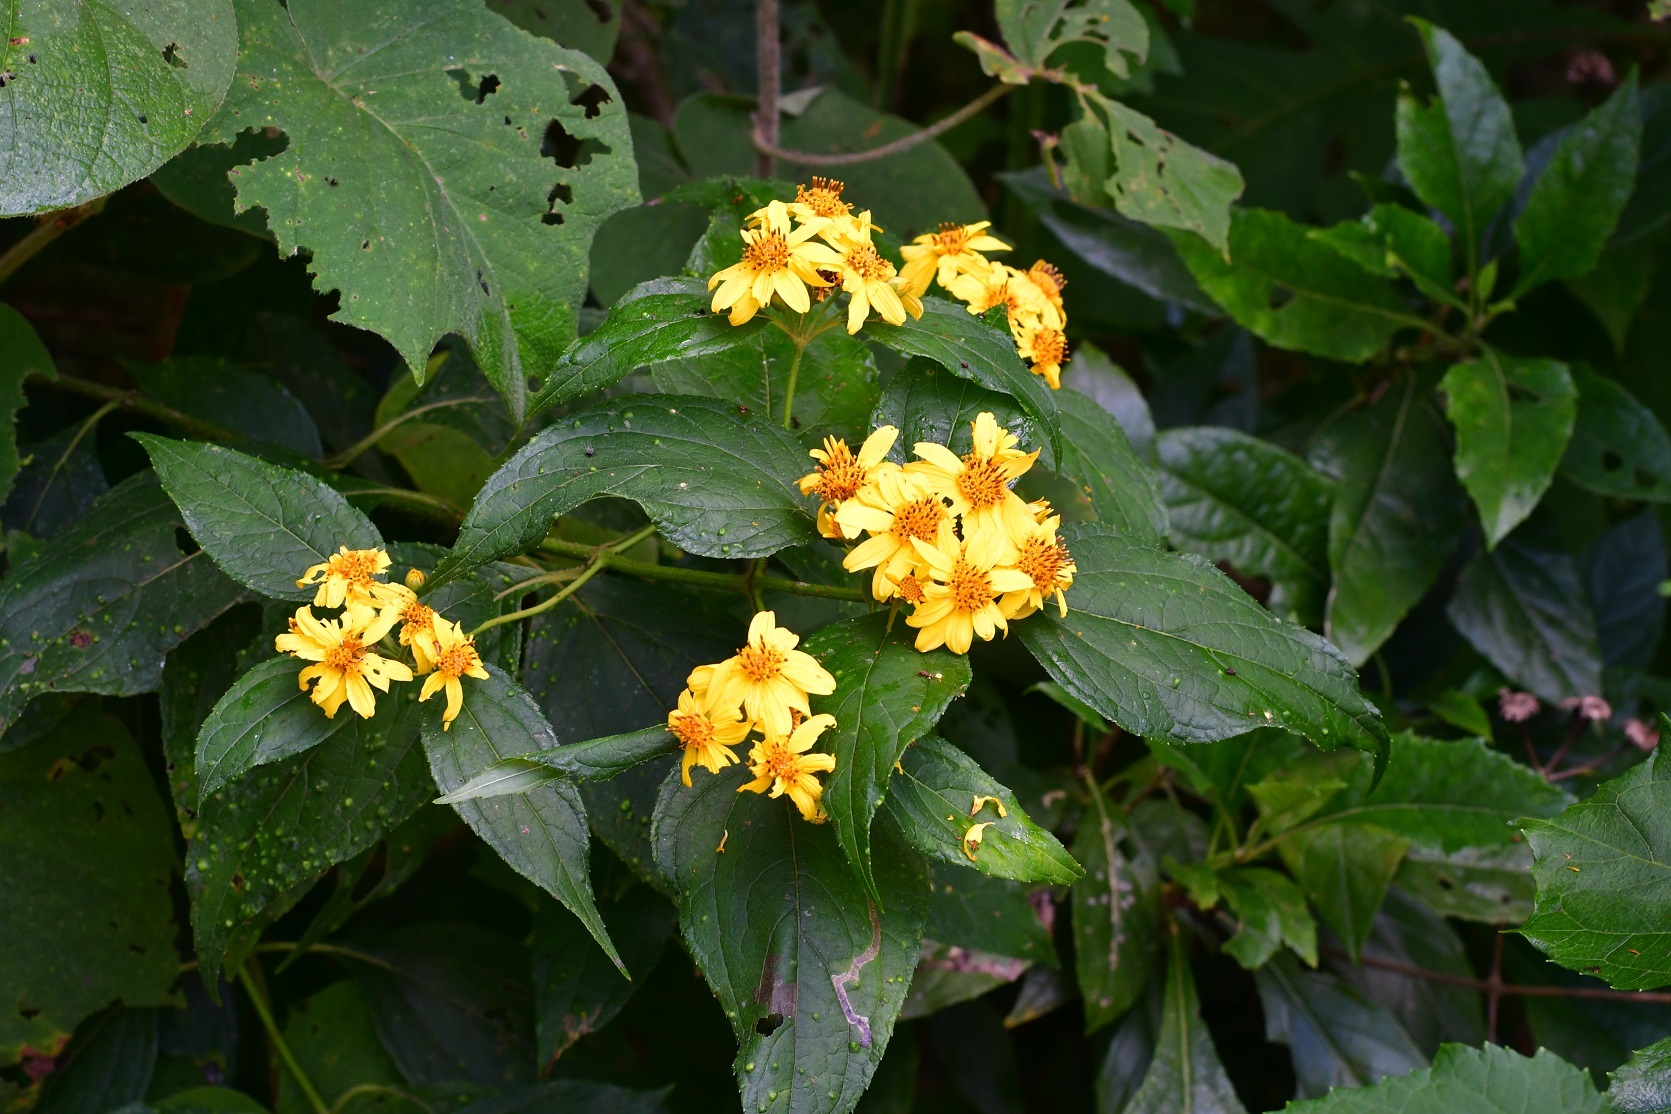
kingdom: Plantae
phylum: Tracheophyta
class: Magnoliopsida
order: Asterales
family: Asteraceae
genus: Perymenium
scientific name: Perymenium grande
